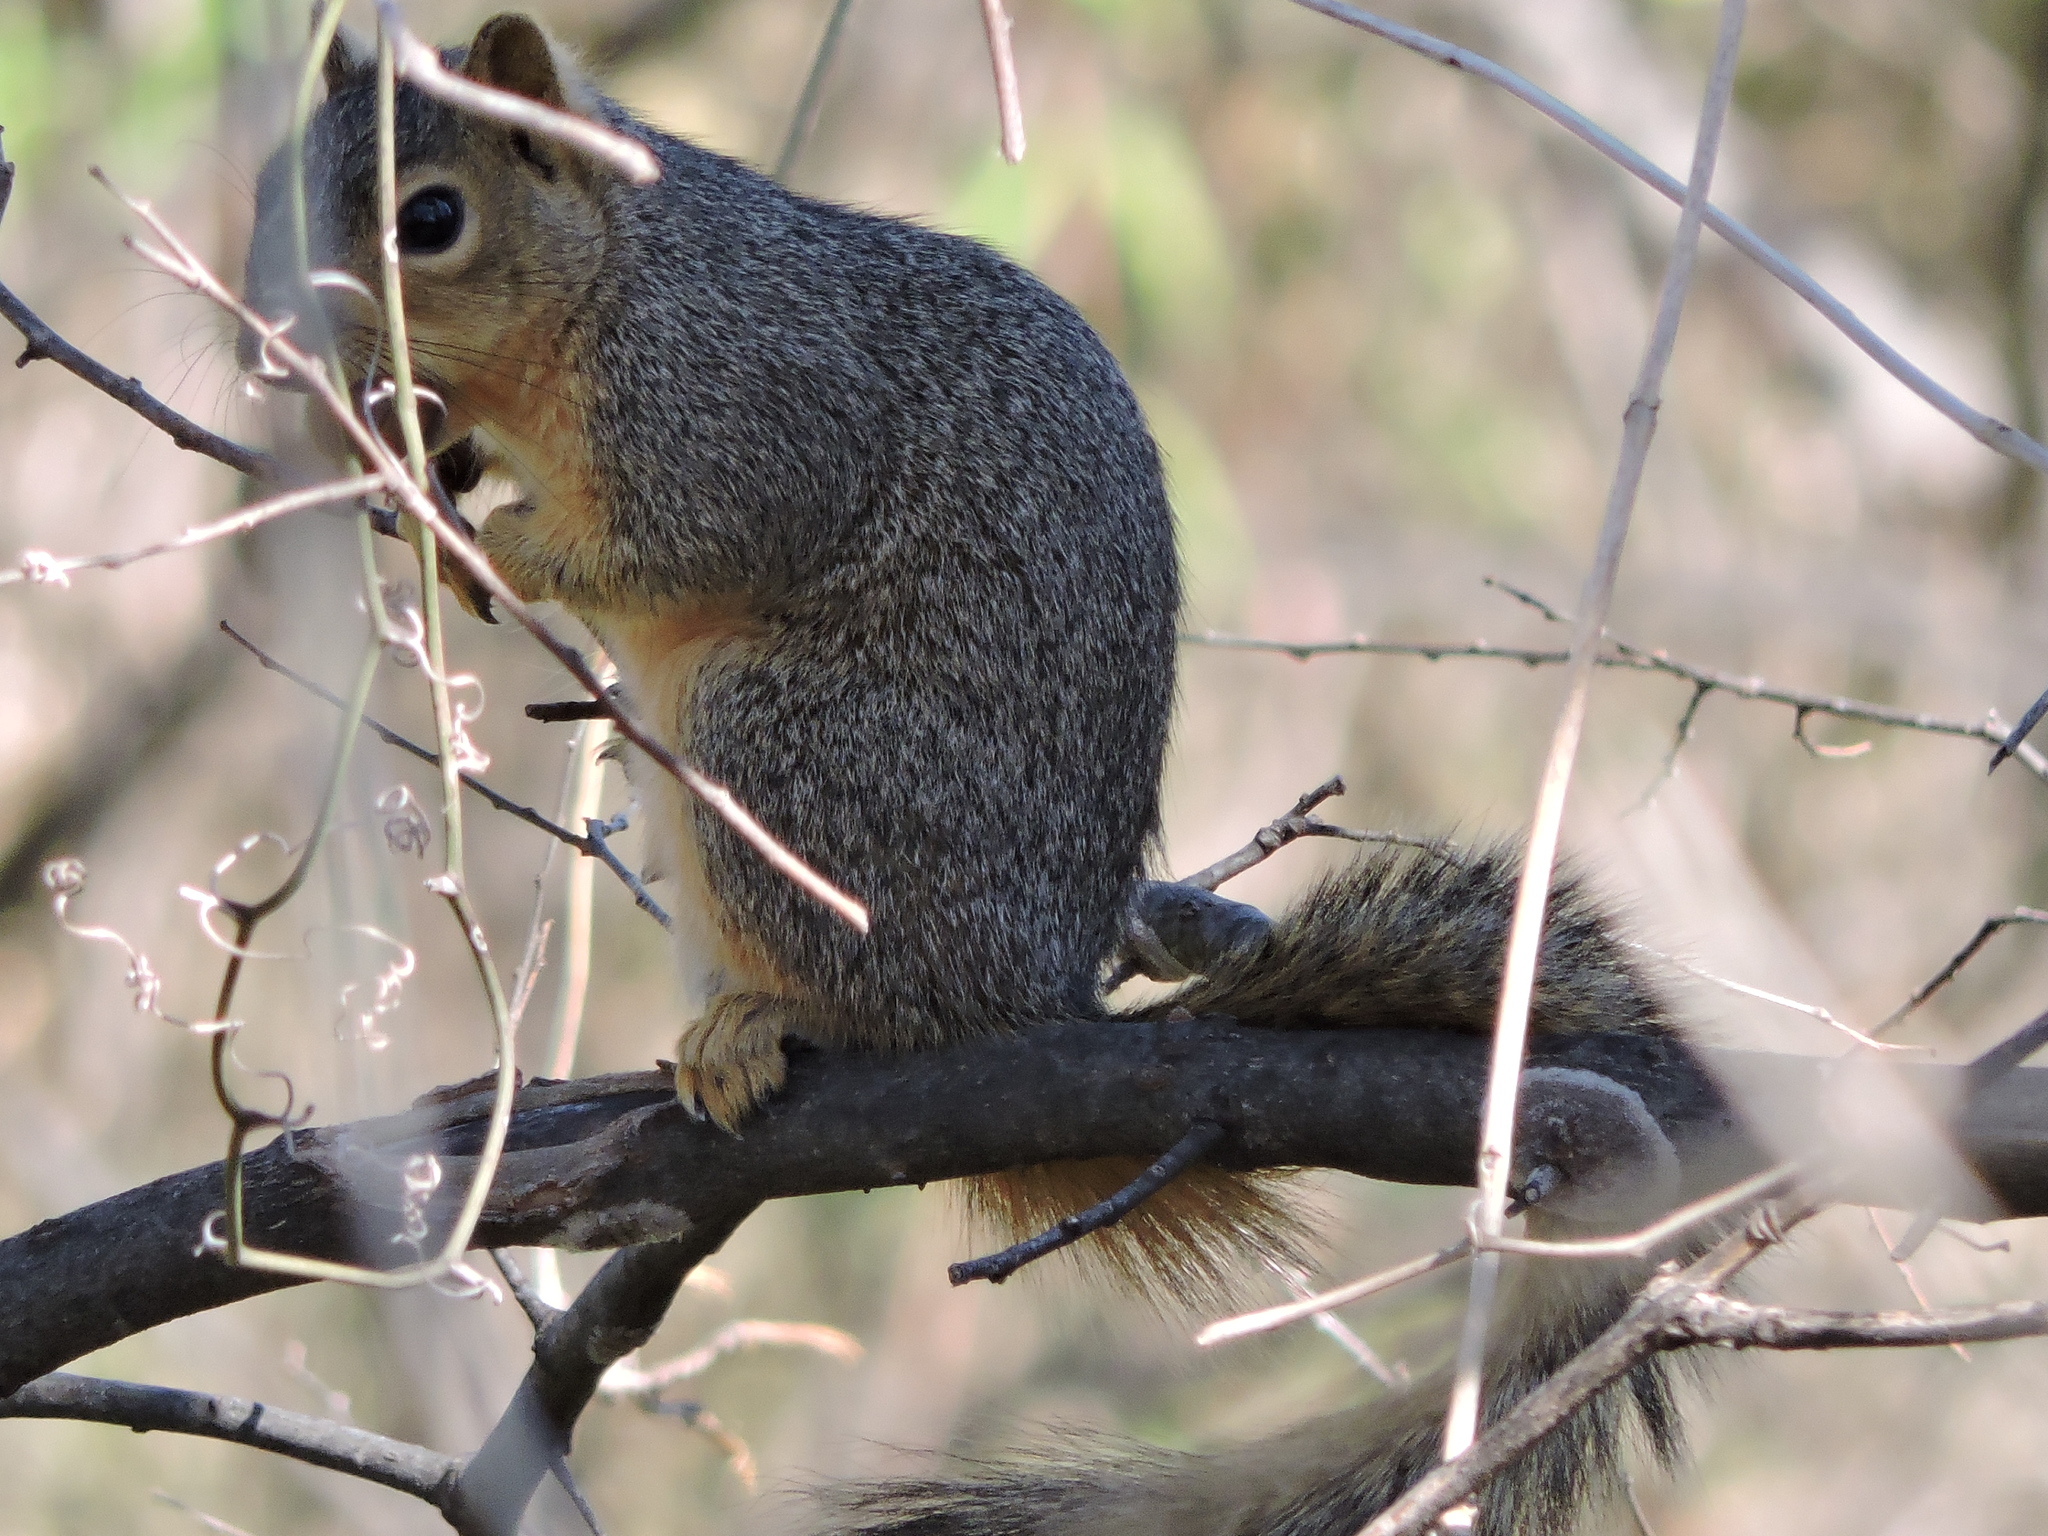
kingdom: Animalia
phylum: Chordata
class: Mammalia
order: Rodentia
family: Sciuridae
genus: Sciurus
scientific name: Sciurus niger
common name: Fox squirrel
